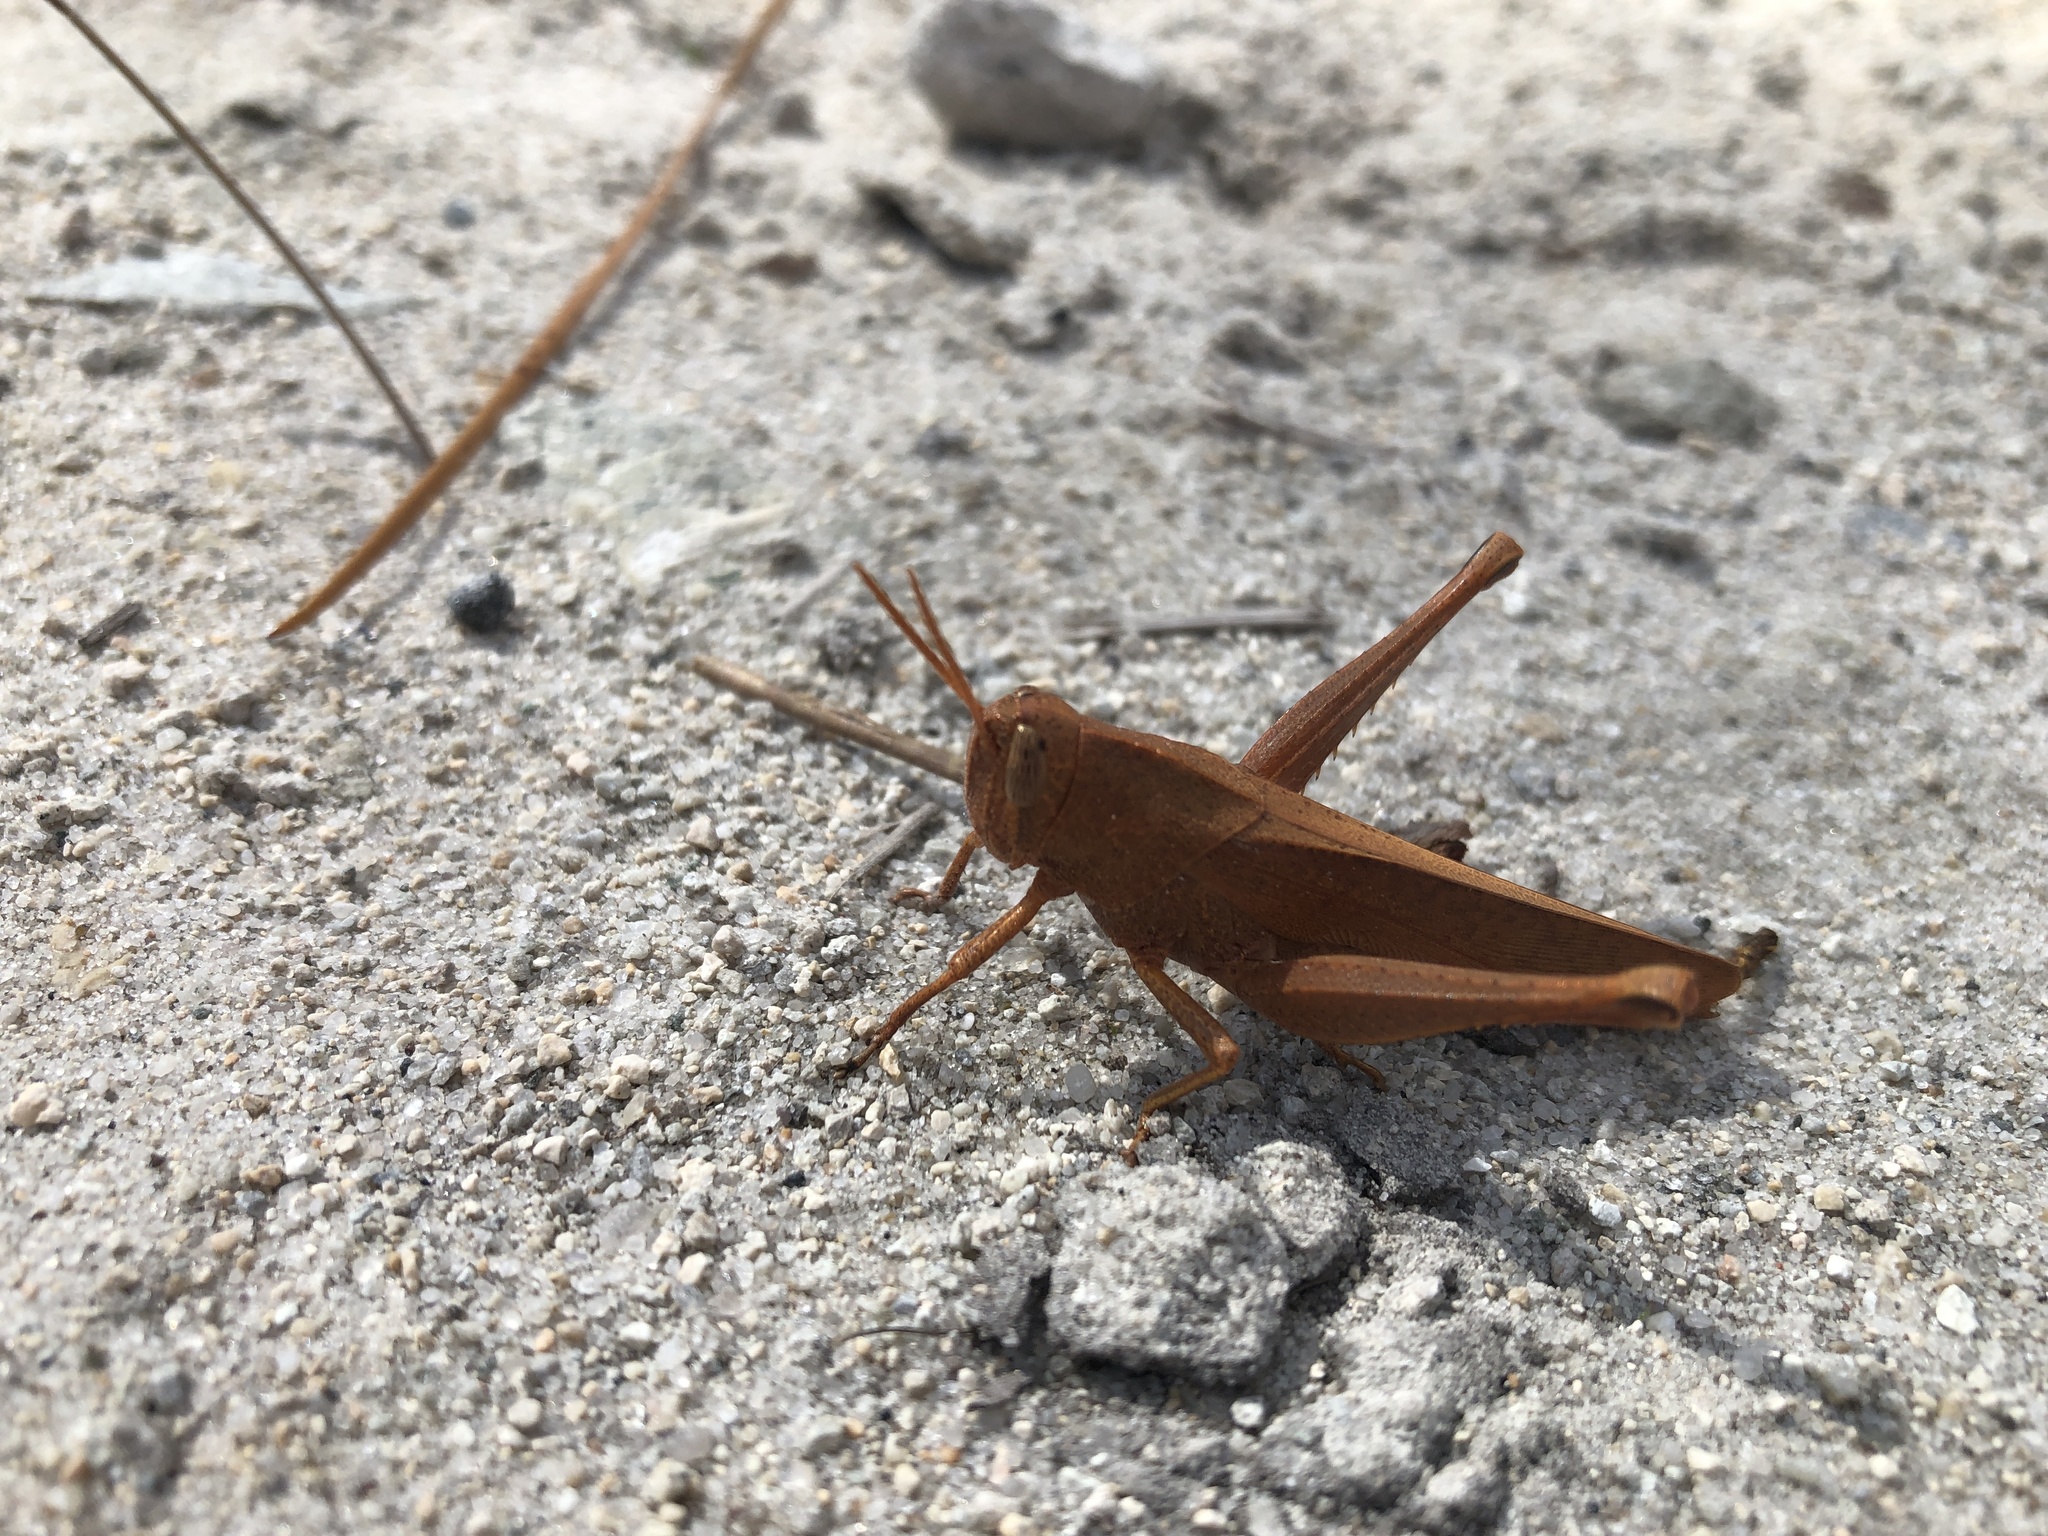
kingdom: Animalia
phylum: Arthropoda
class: Insecta
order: Orthoptera
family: Acrididae
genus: Schistocerca
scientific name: Schistocerca damnifica
